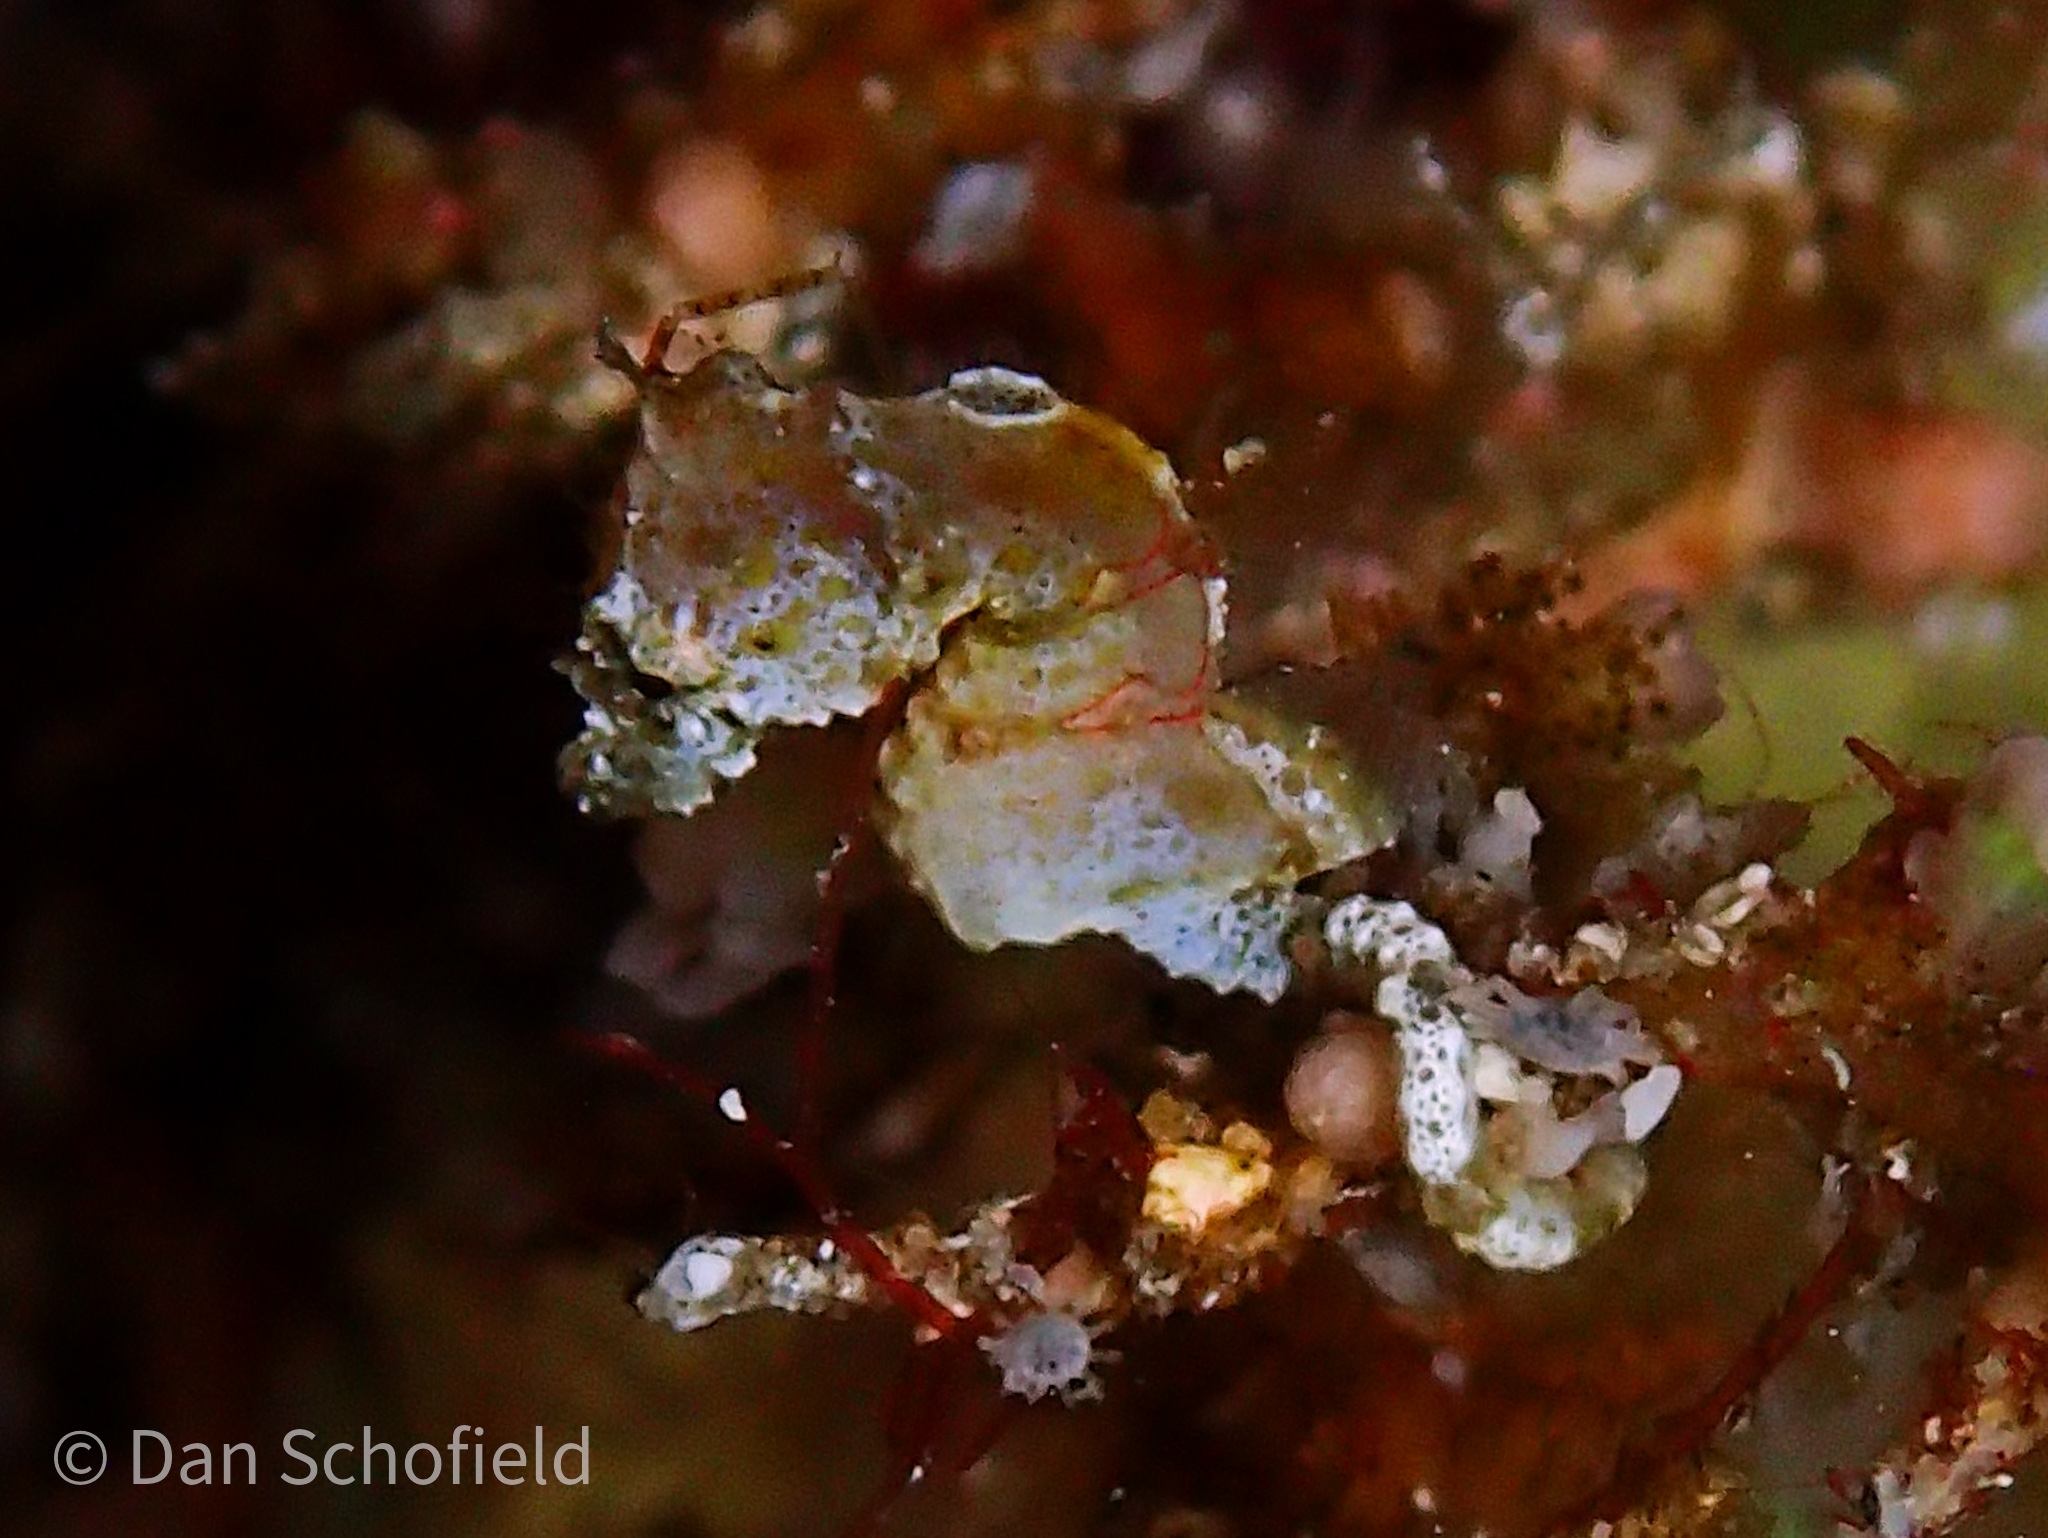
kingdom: Animalia
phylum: Chordata
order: Syngnathiformes
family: Syngnathidae
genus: Hippocampus
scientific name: Hippocampus pontohi
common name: Pontoh`s pygmy seahorse
